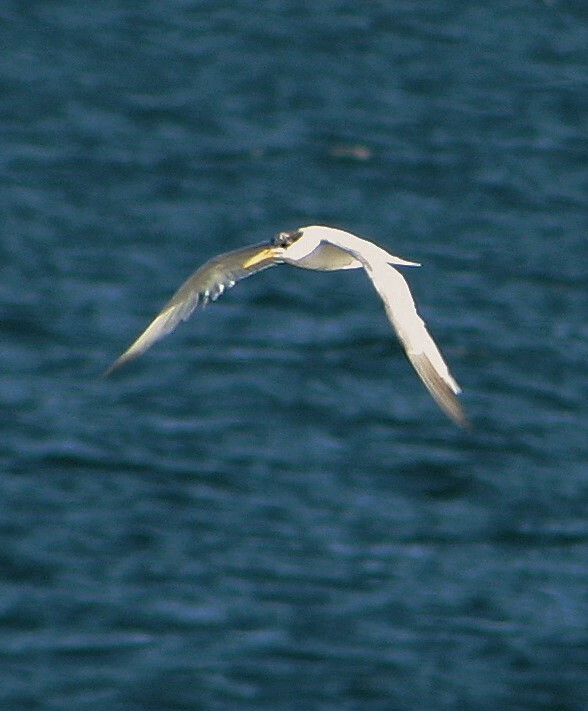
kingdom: Animalia
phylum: Chordata
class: Aves
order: Charadriiformes
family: Laridae
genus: Thalasseus
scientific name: Thalasseus sandvicensis
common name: Sandwich tern
